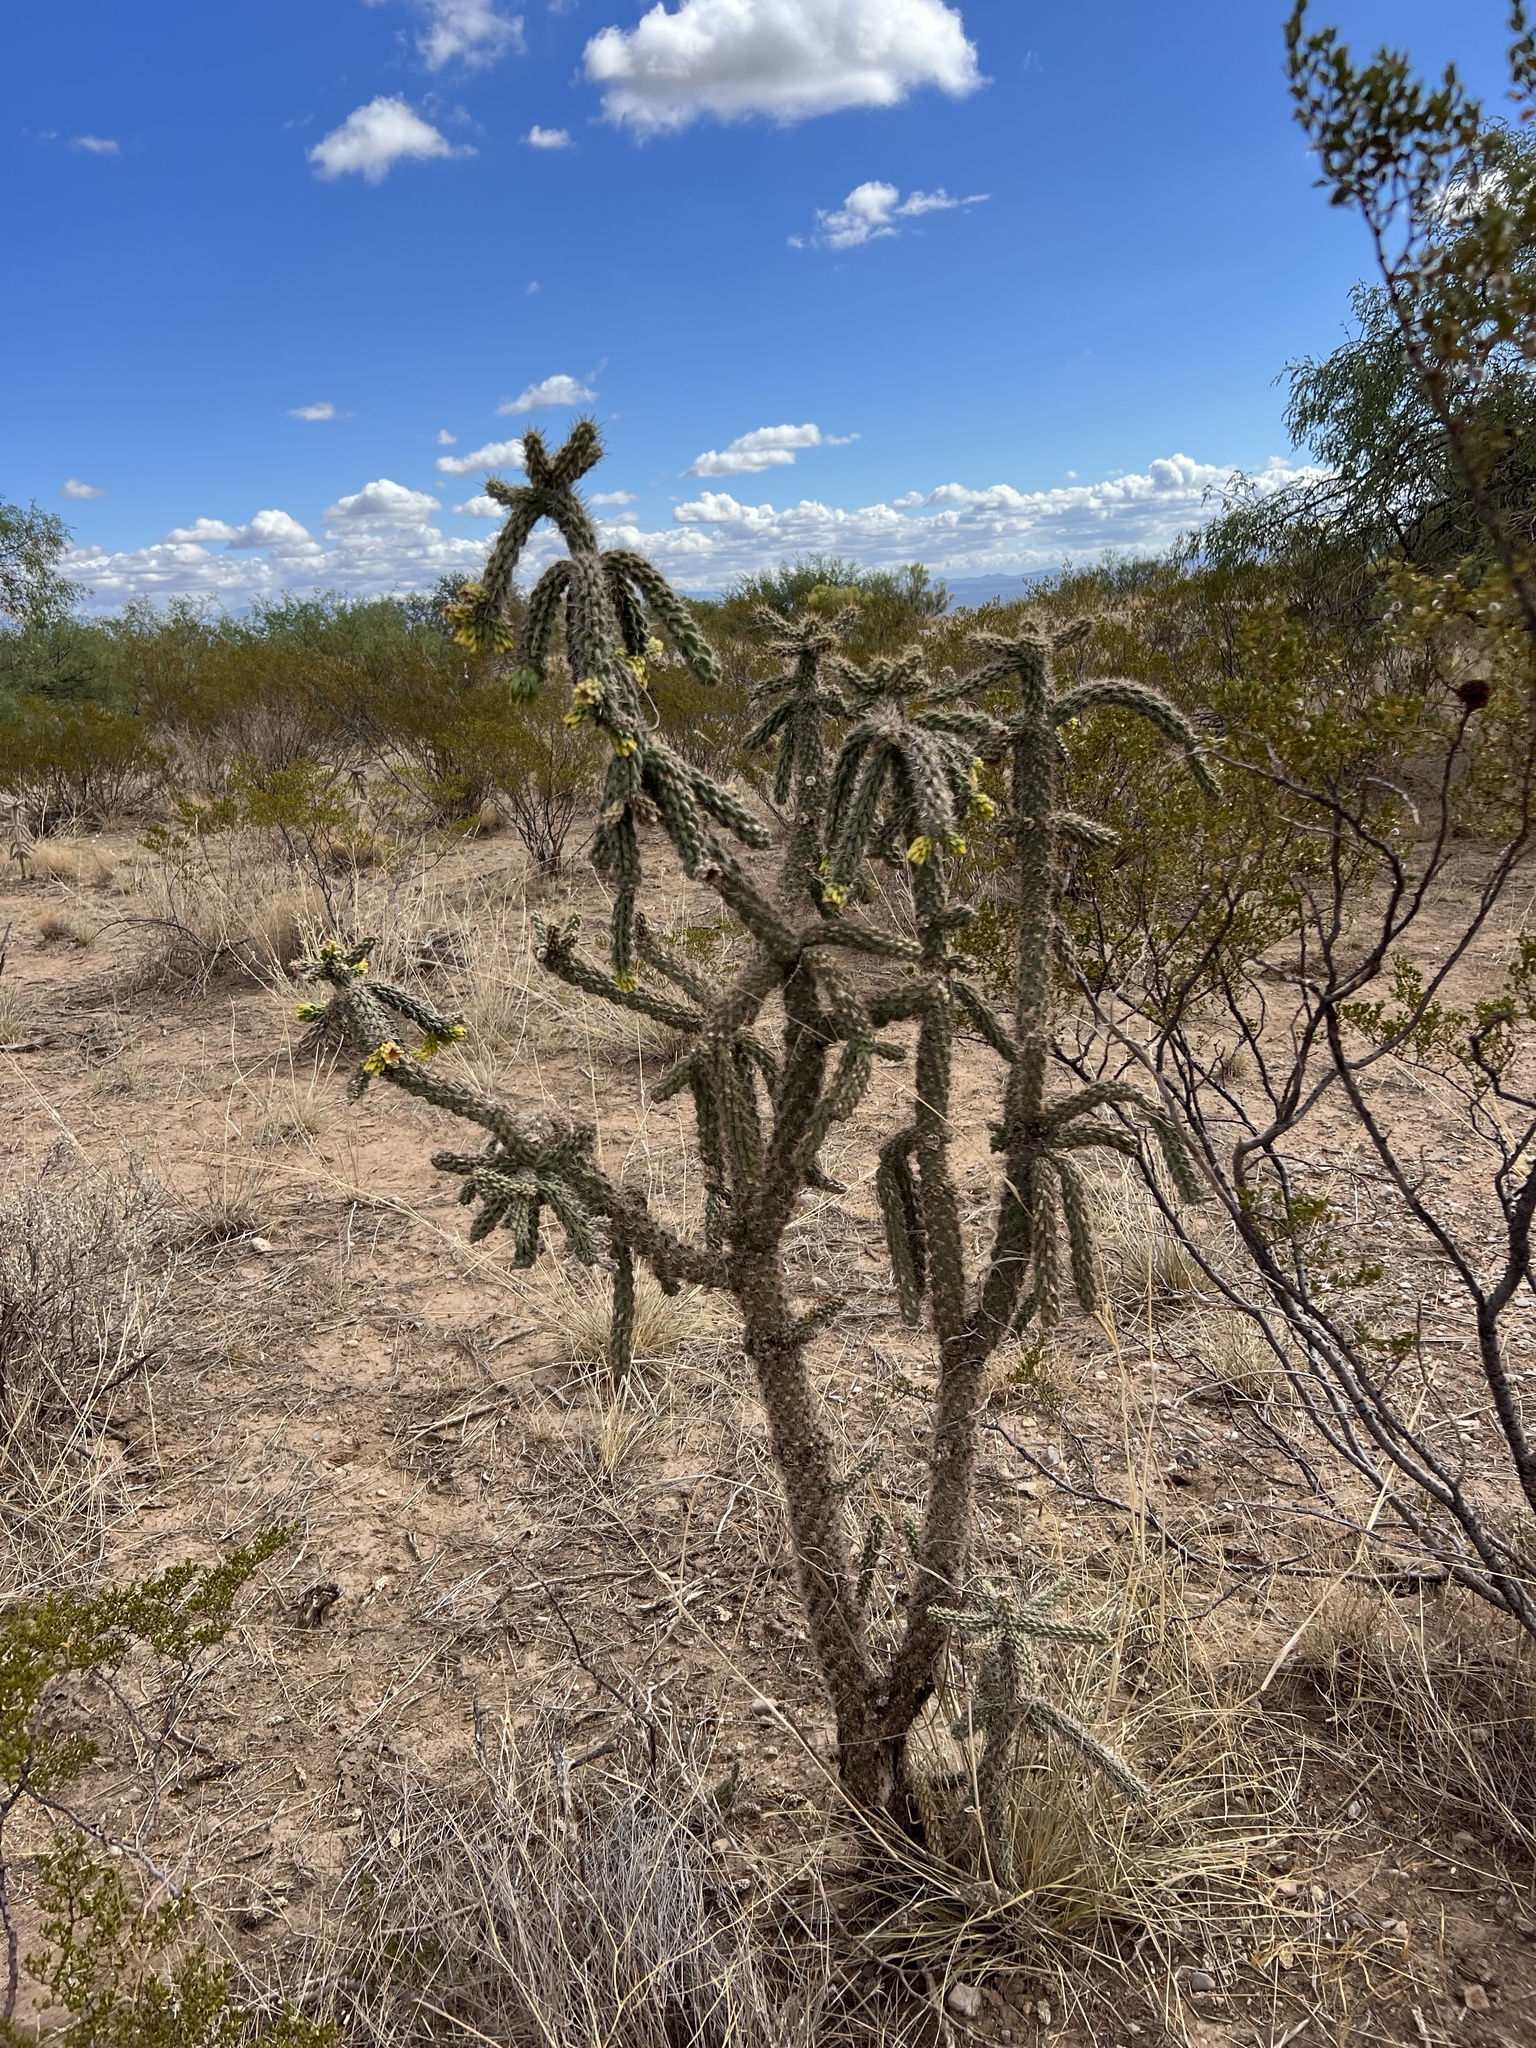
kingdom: Plantae
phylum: Tracheophyta
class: Magnoliopsida
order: Caryophyllales
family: Cactaceae
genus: Cylindropuntia
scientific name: Cylindropuntia imbricata
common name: Candelabrum cactus
